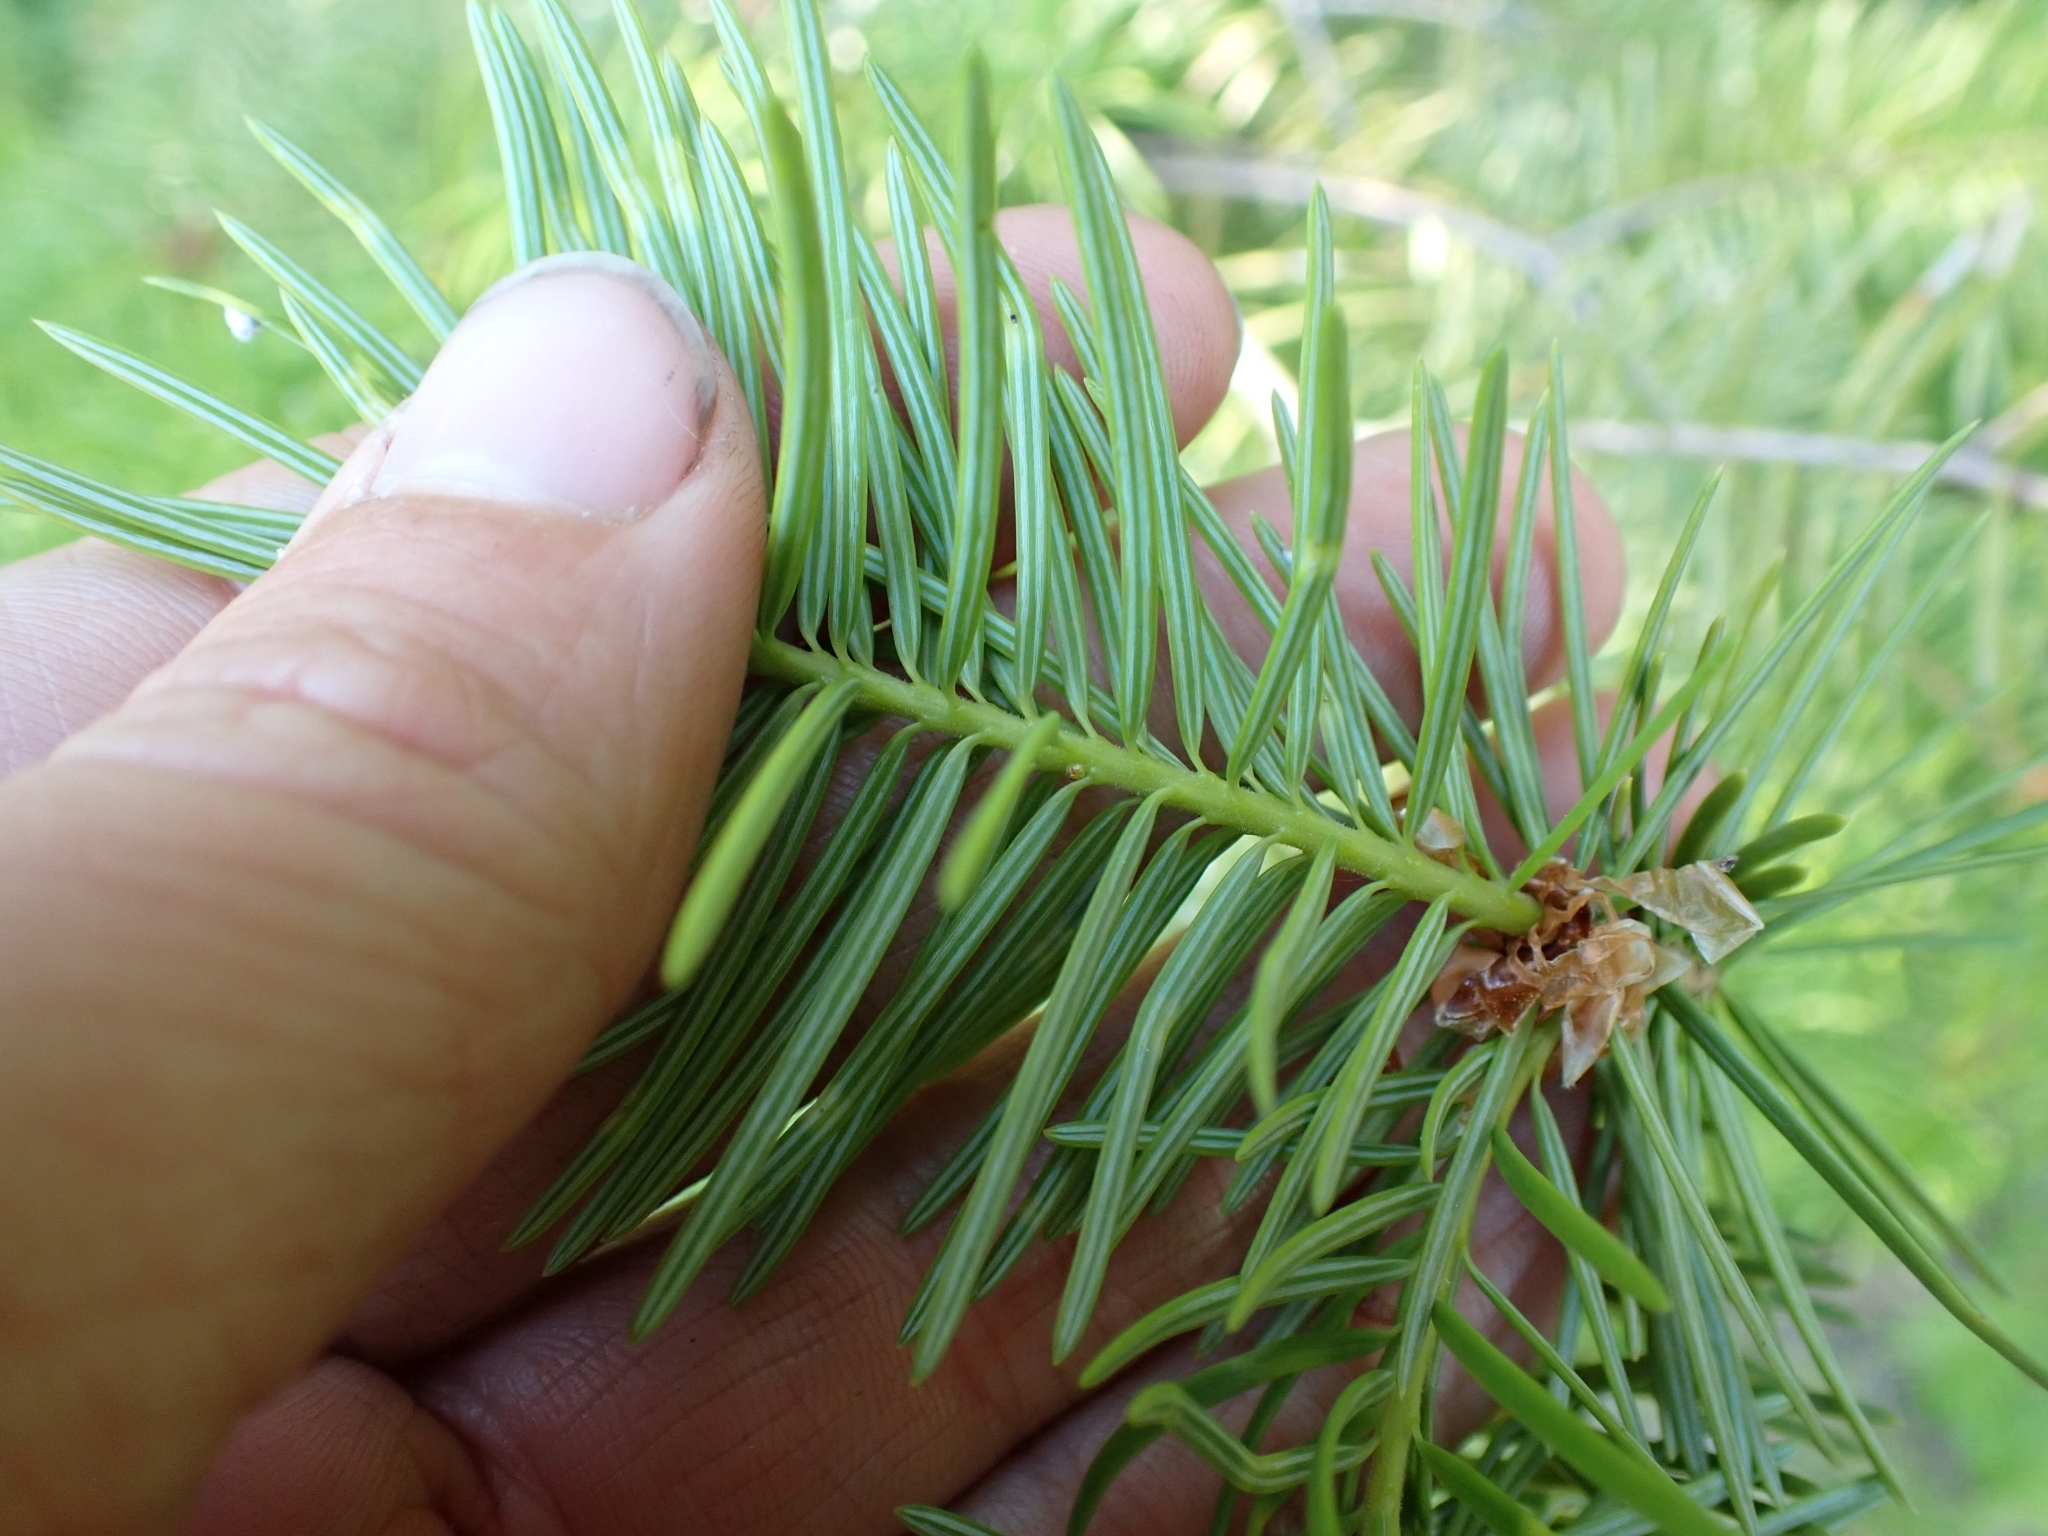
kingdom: Plantae
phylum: Tracheophyta
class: Pinopsida
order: Pinales
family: Pinaceae
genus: Pseudotsuga
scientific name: Pseudotsuga menziesii
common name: Douglas fir
